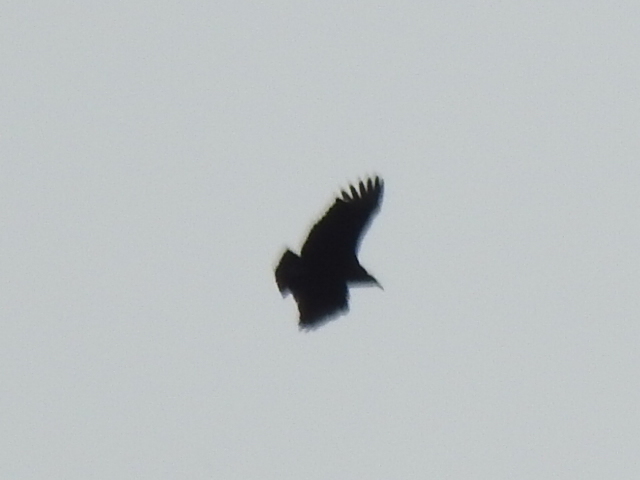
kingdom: Animalia
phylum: Chordata
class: Aves
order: Accipitriformes
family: Cathartidae
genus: Coragyps
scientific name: Coragyps atratus
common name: Black vulture
